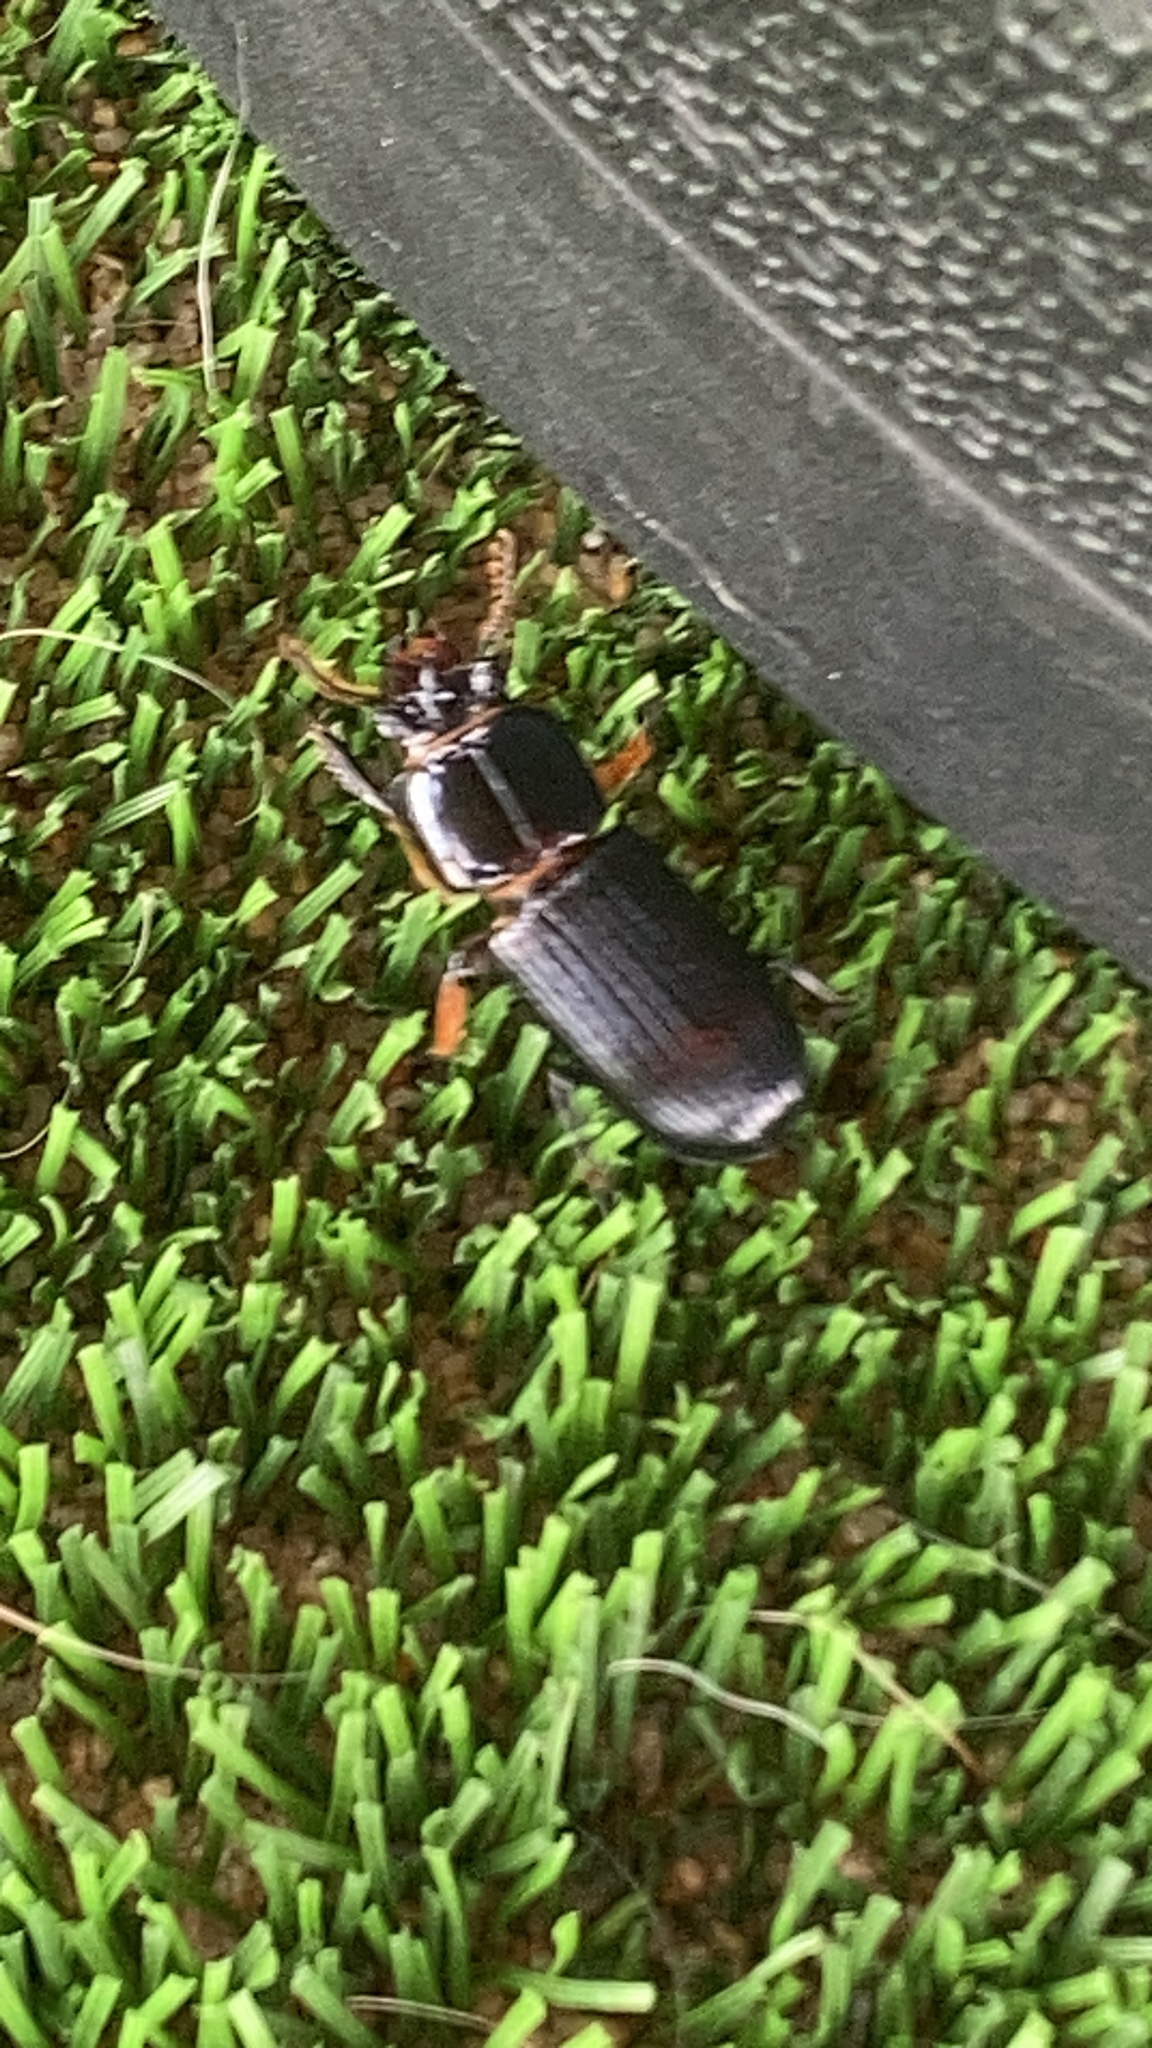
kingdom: Animalia
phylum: Arthropoda
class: Insecta
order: Coleoptera
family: Passalidae
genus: Odontotaenius
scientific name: Odontotaenius disjunctus
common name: Patent leather beetle
